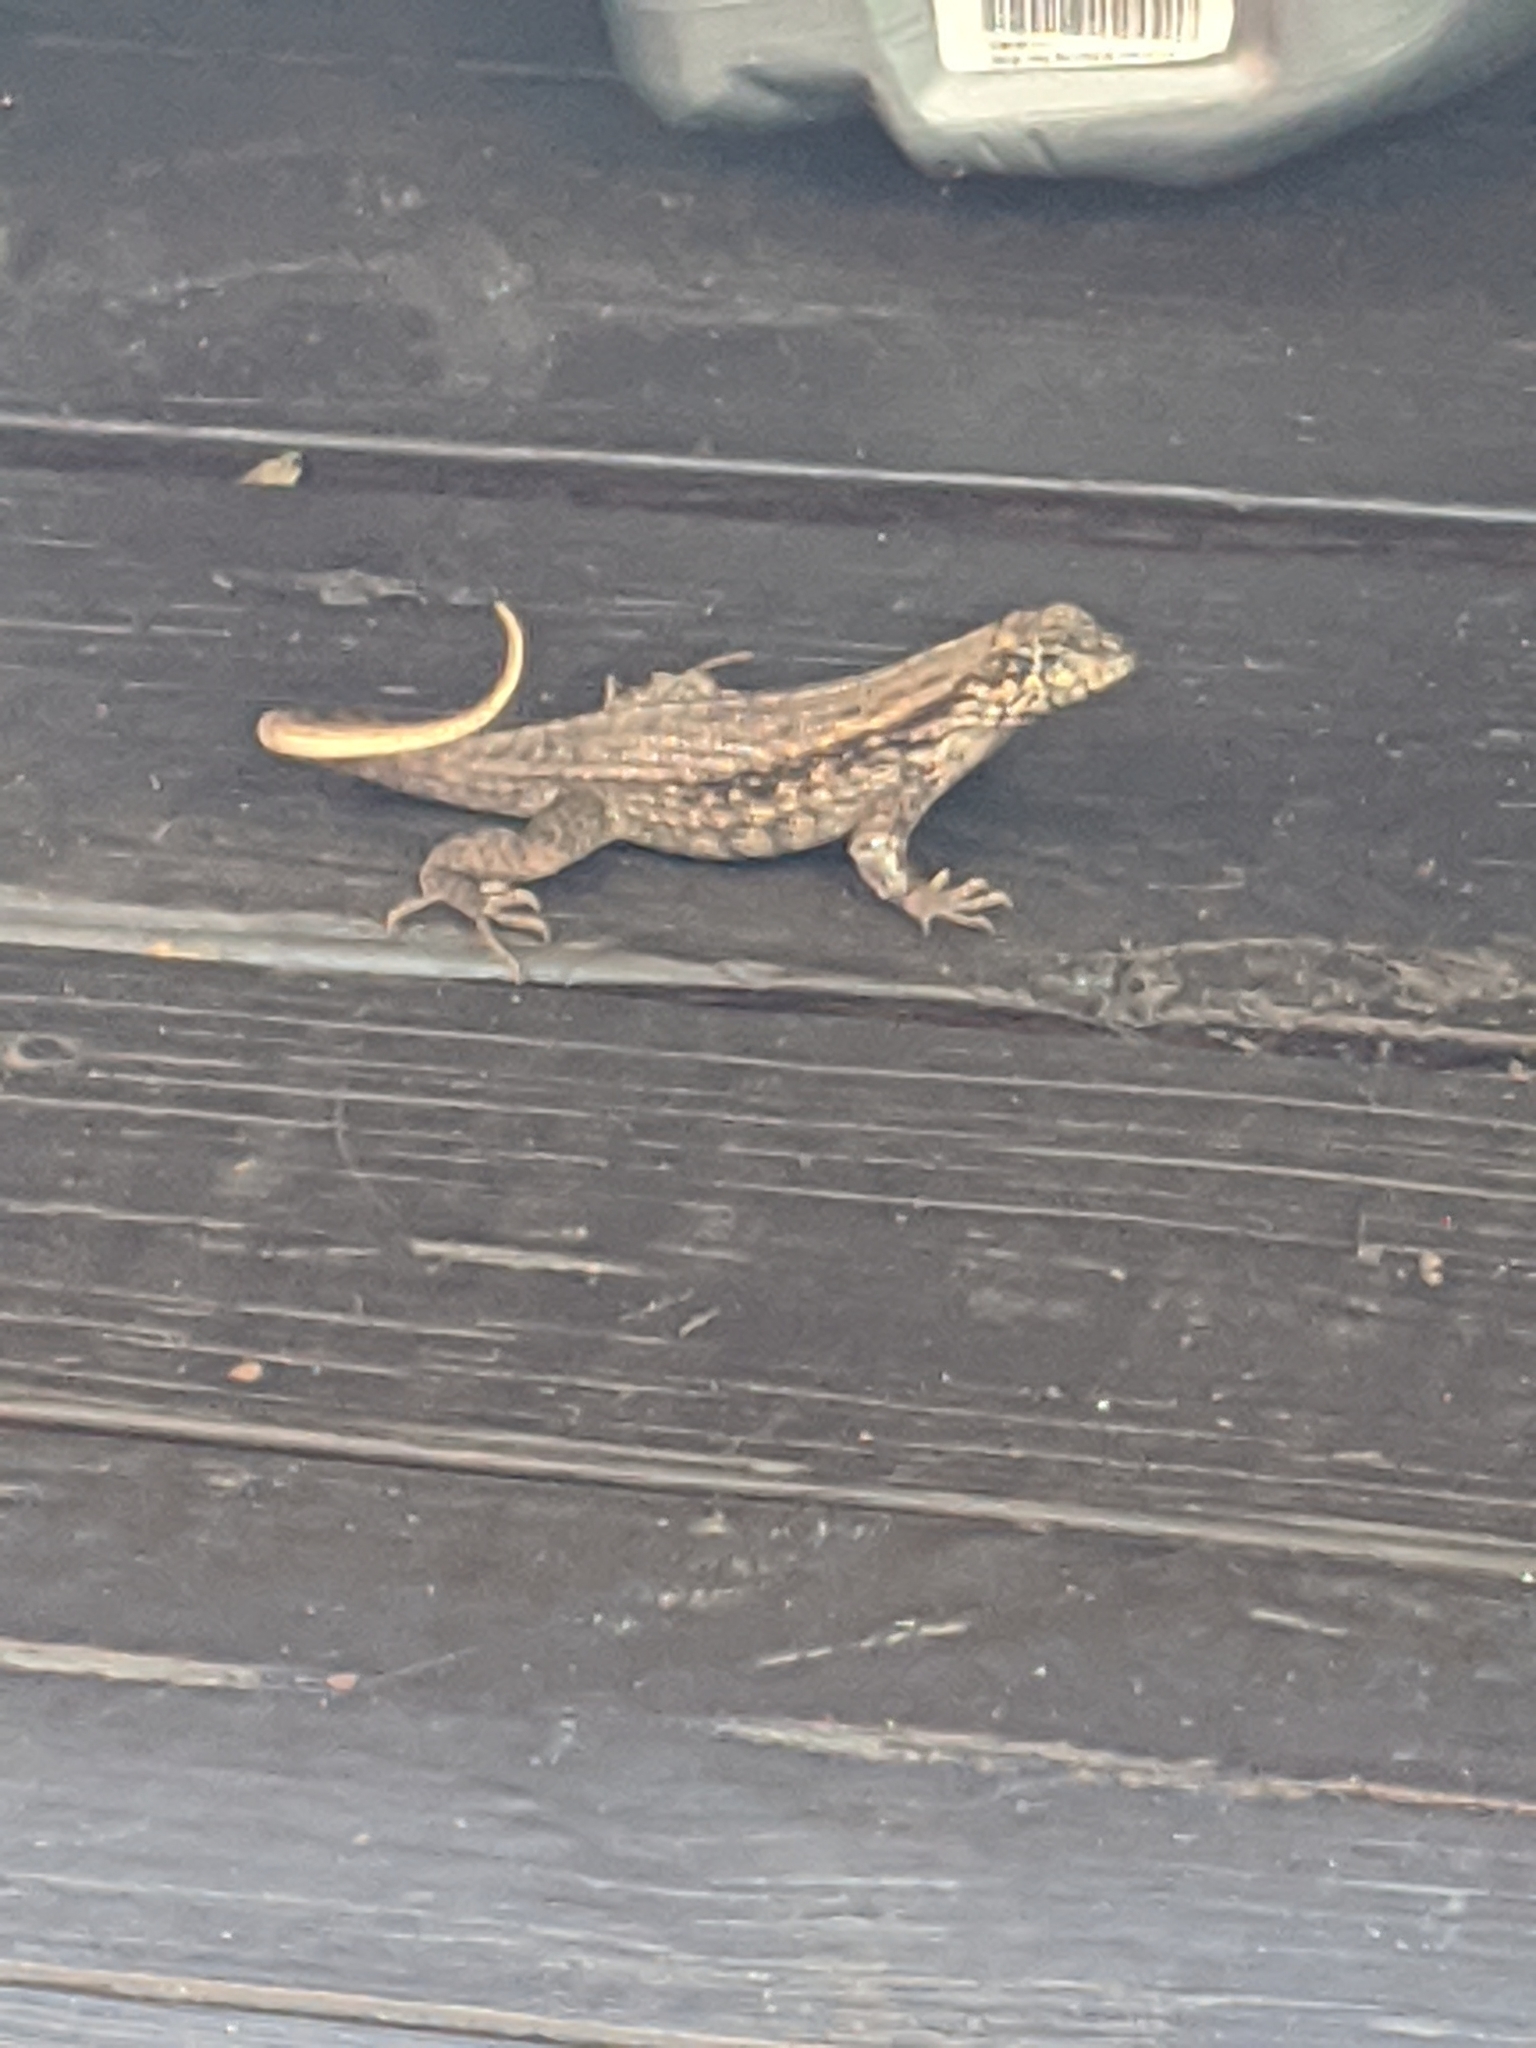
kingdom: Animalia
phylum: Chordata
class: Squamata
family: Leiocephalidae
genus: Leiocephalus
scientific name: Leiocephalus carinatus
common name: Northern curly-tailed lizard
